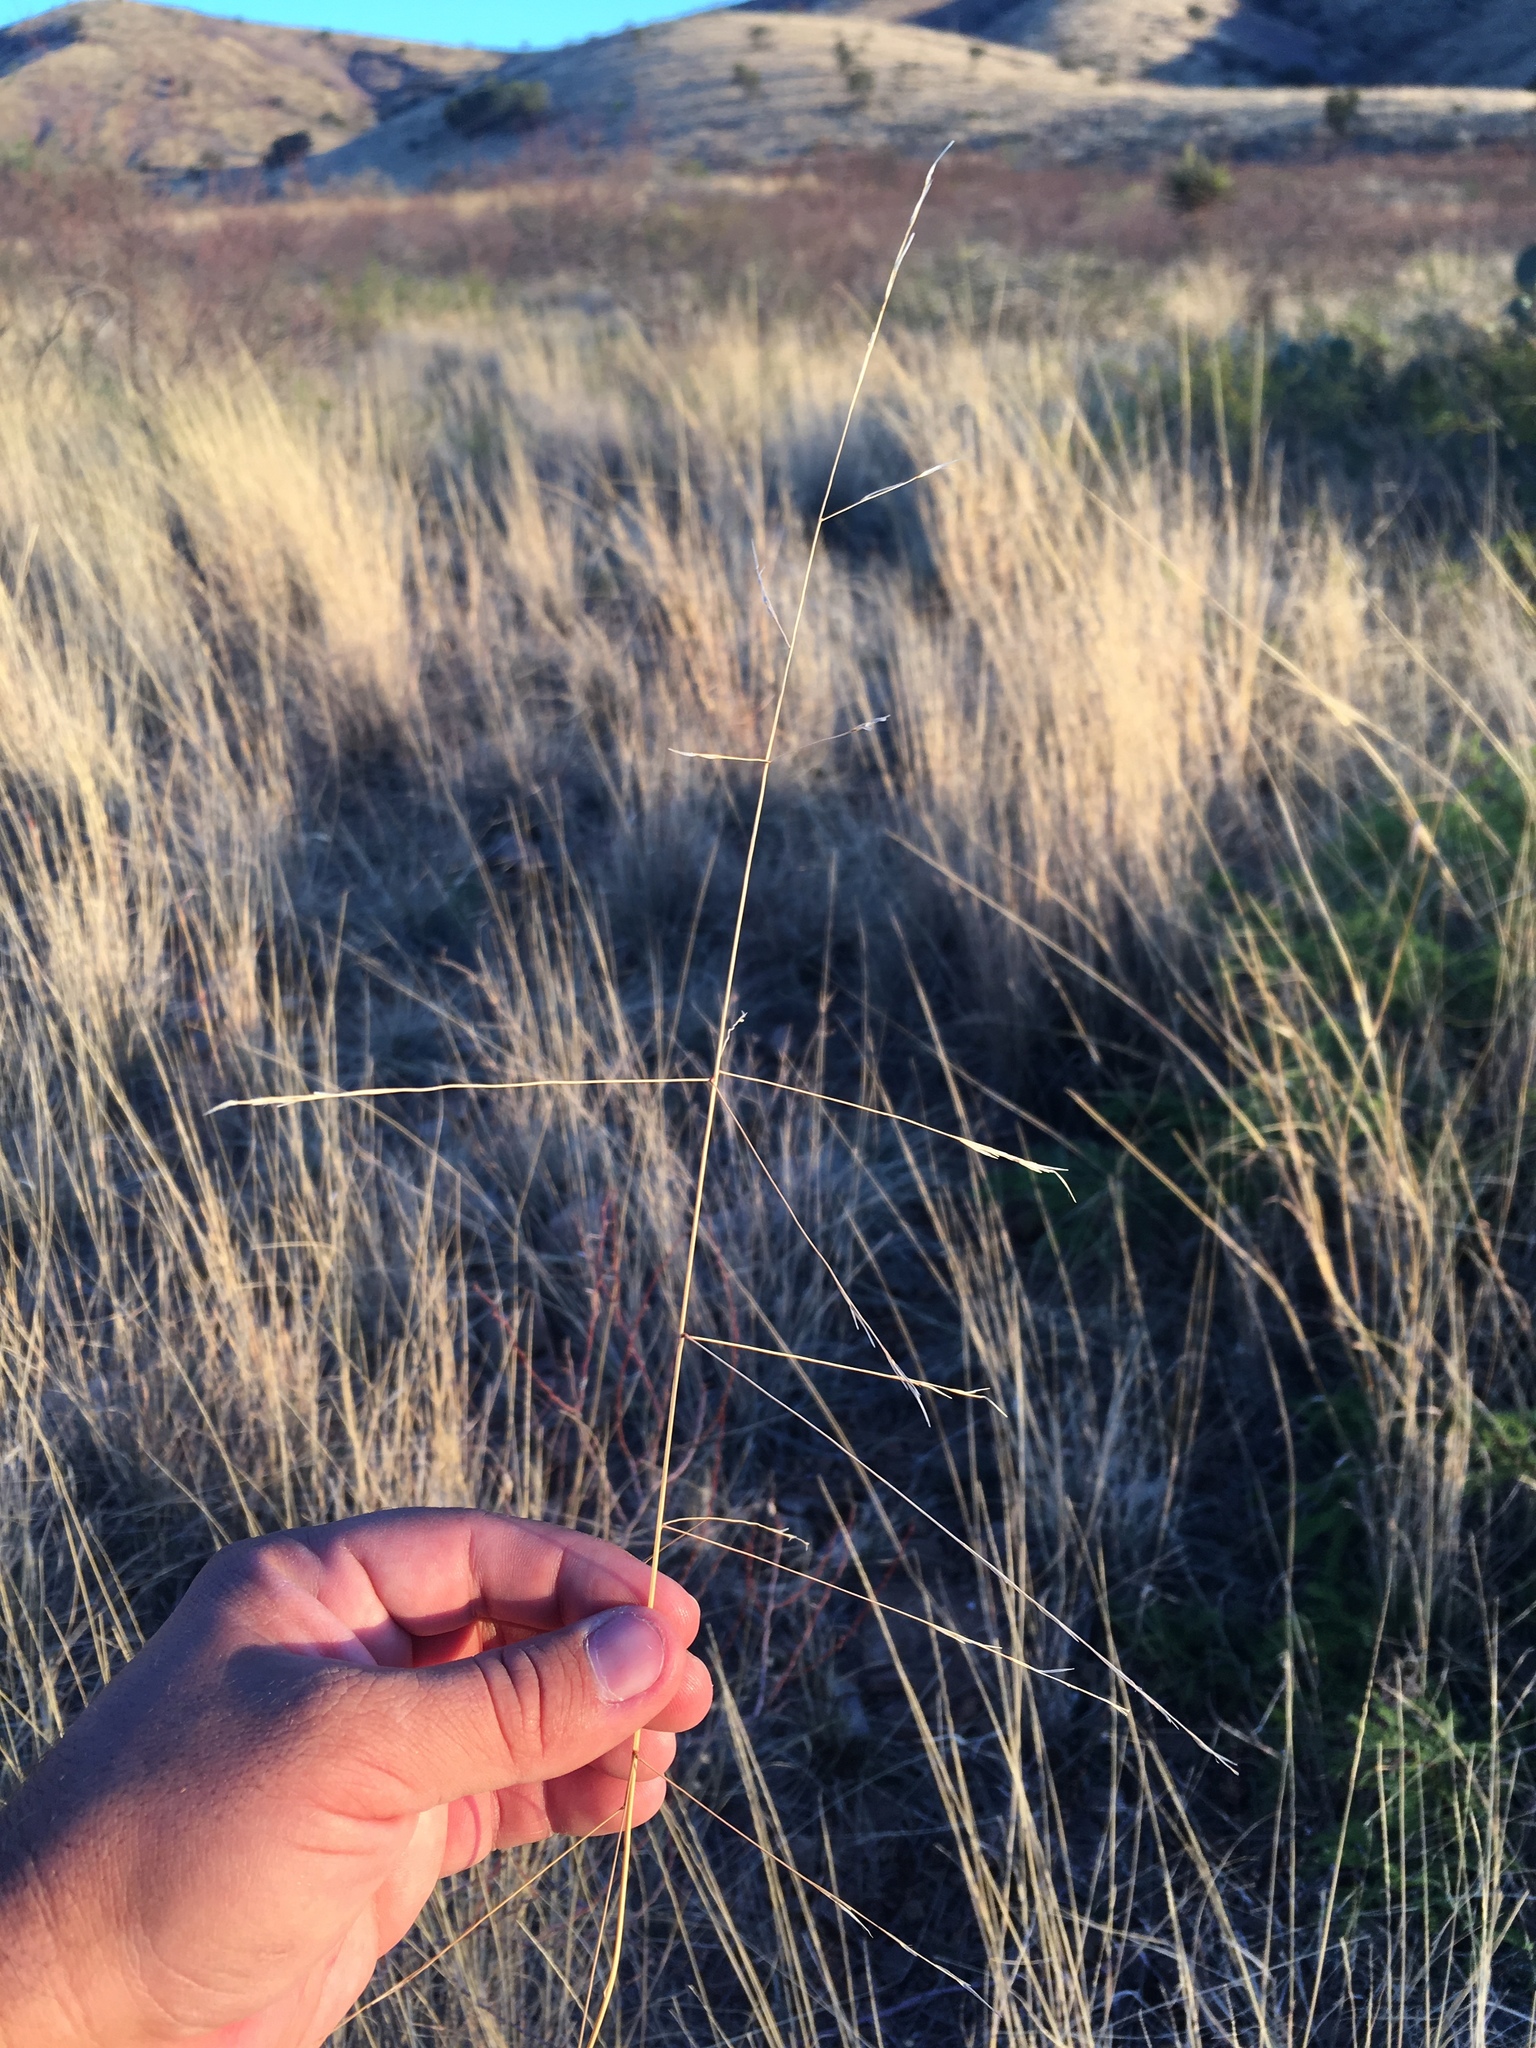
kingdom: Plantae
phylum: Tracheophyta
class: Liliopsida
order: Poales
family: Poaceae
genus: Aristida
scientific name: Aristida ternipes
